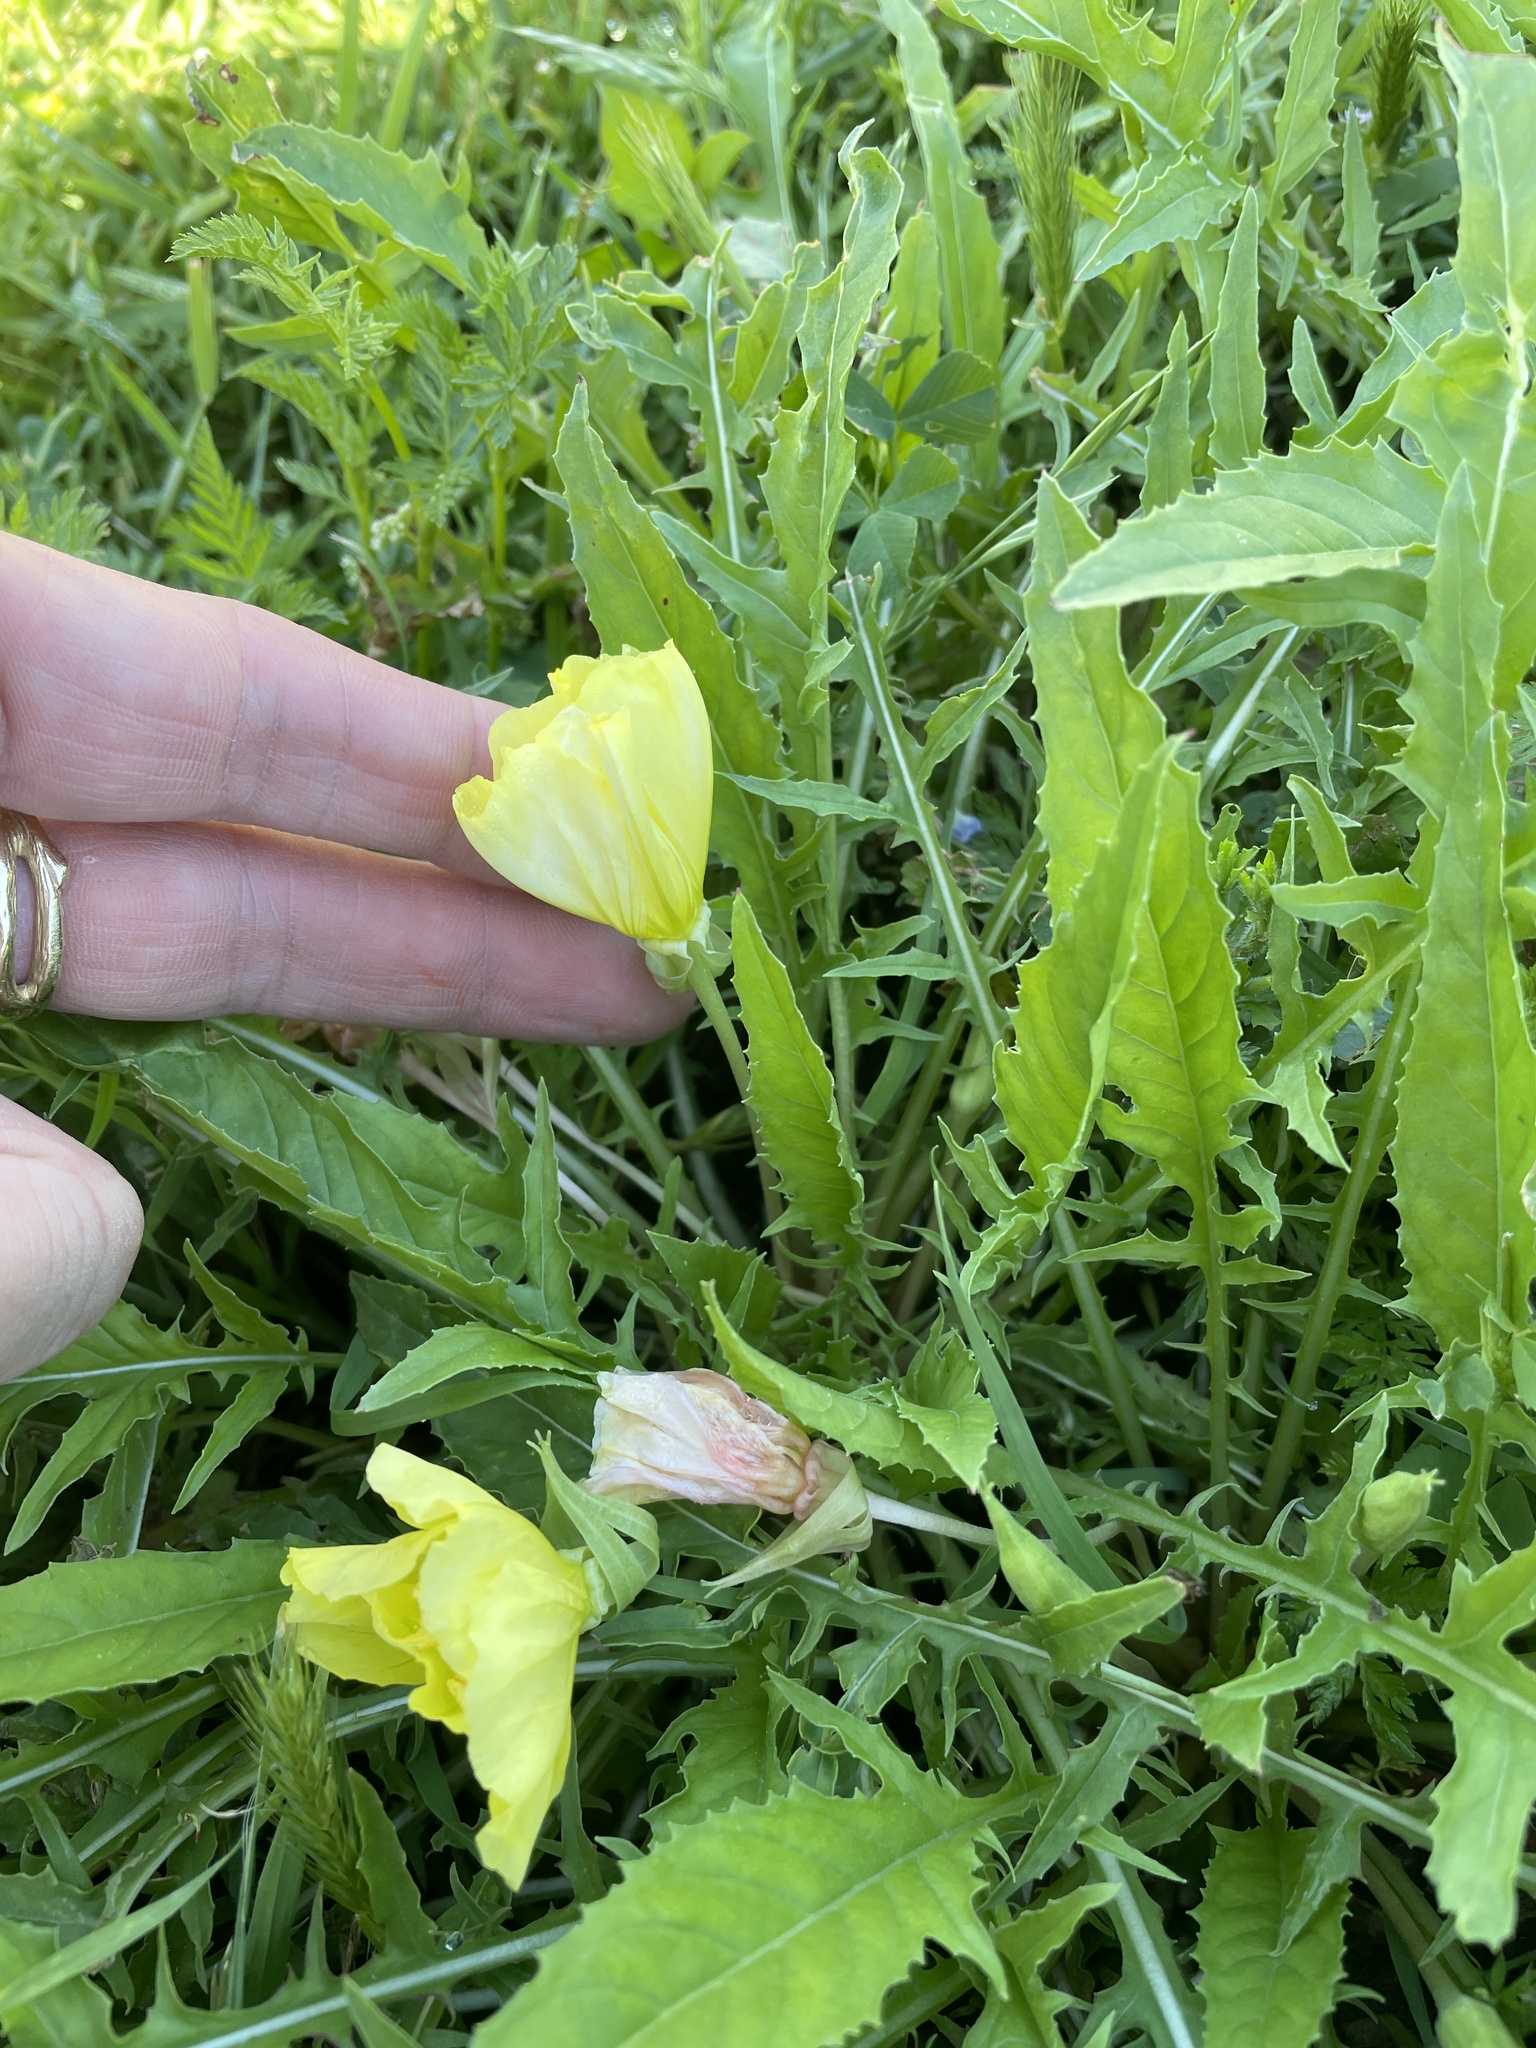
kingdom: Plantae
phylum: Tracheophyta
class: Magnoliopsida
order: Myrtales
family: Onagraceae
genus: Oenothera
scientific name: Oenothera triloba
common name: Sessile evening-primrose
